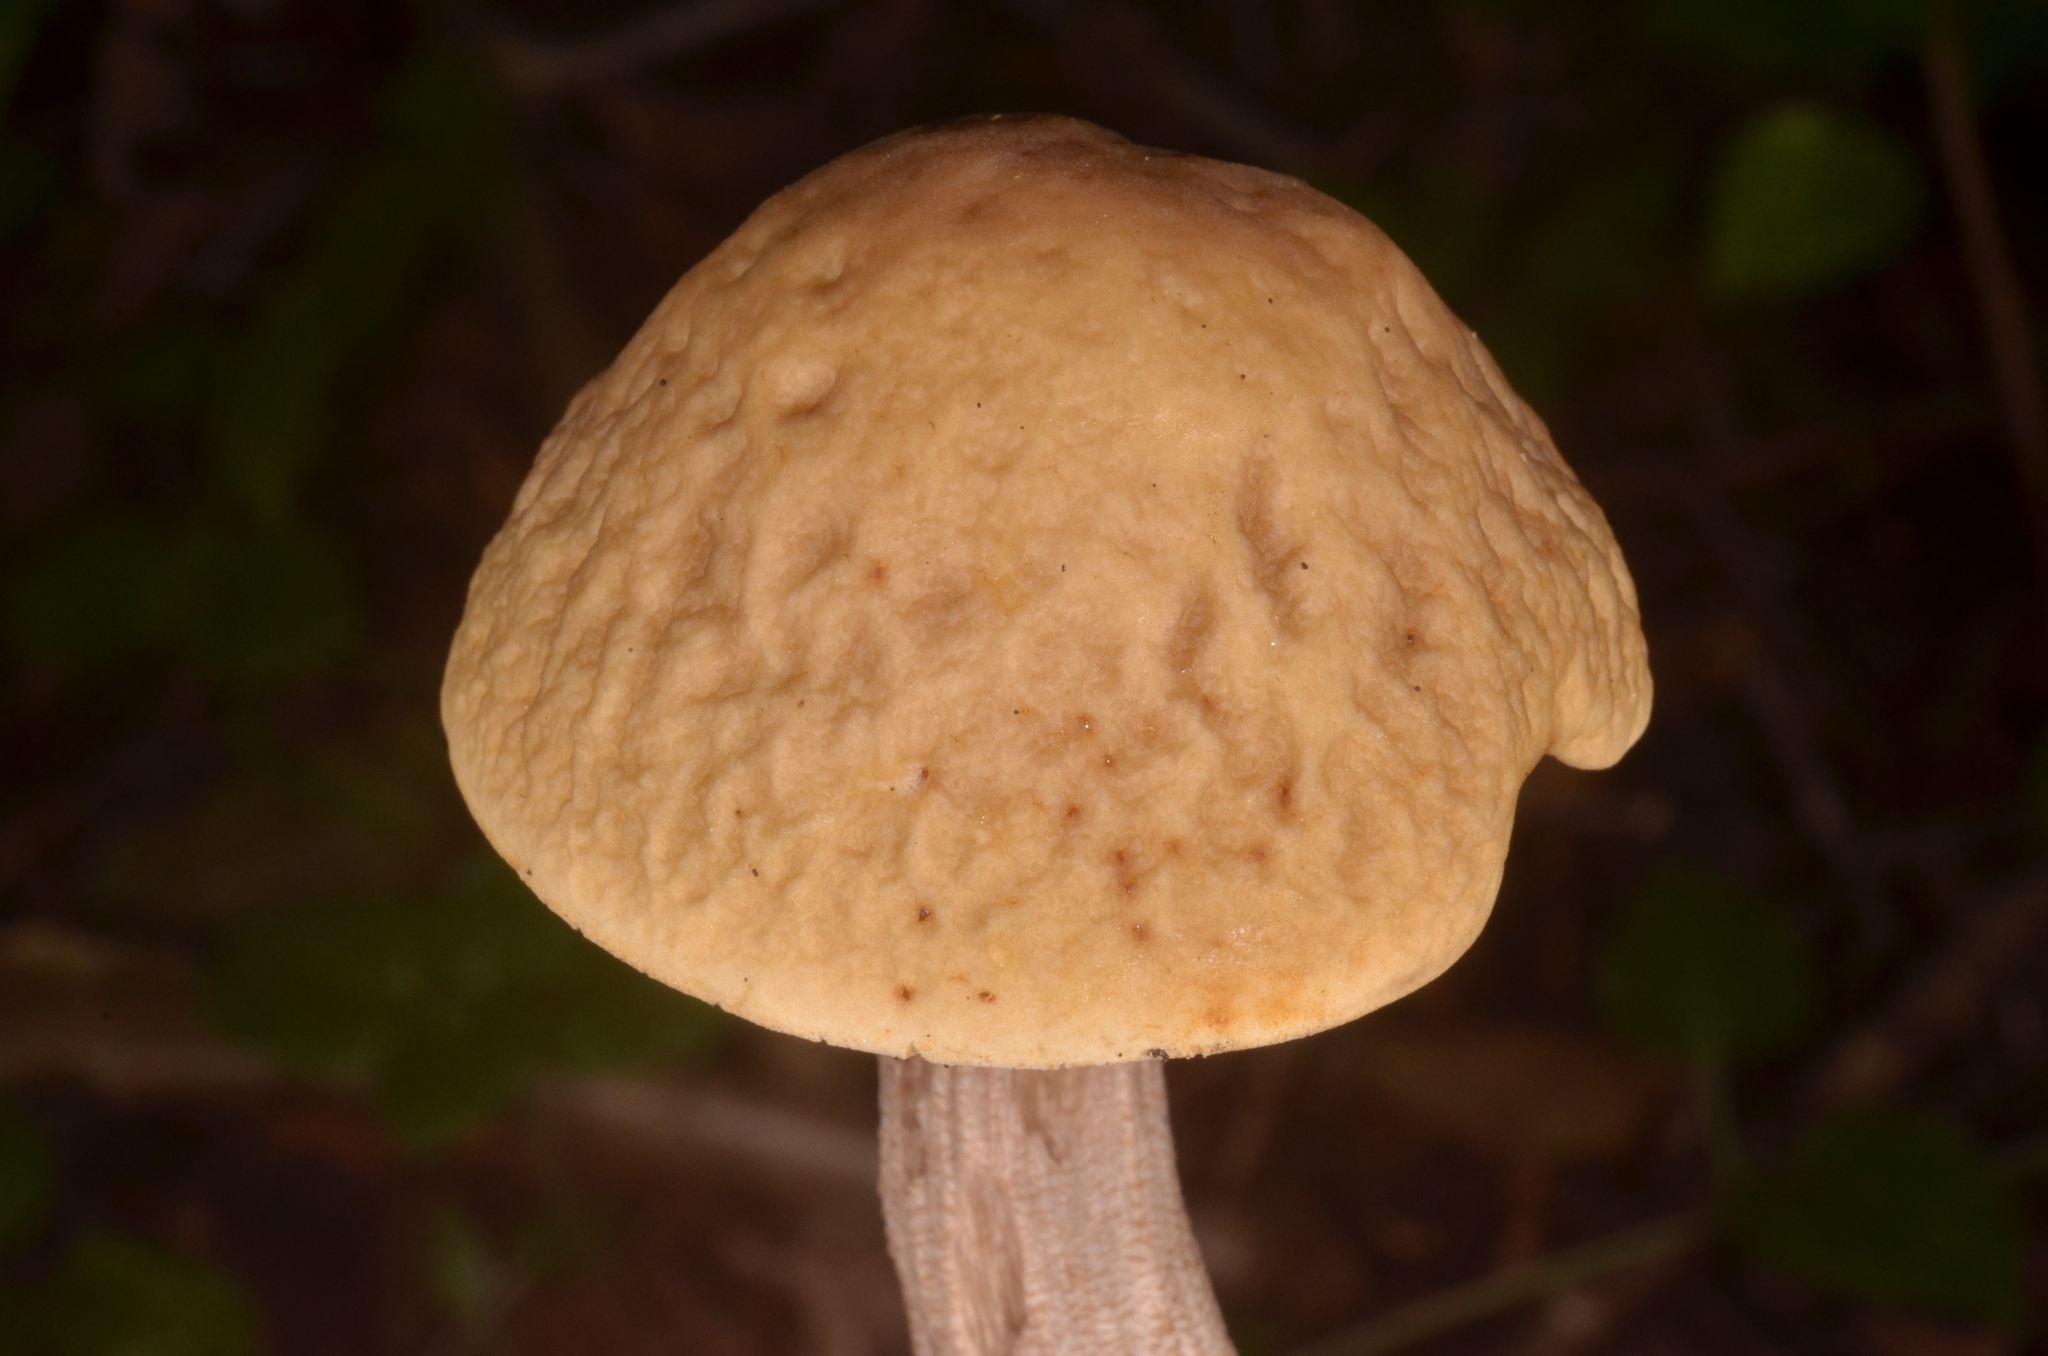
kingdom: Fungi
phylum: Basidiomycota
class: Agaricomycetes
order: Boletales
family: Boletaceae
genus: Leccinellum
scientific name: Leccinellum pseudoscabrum
